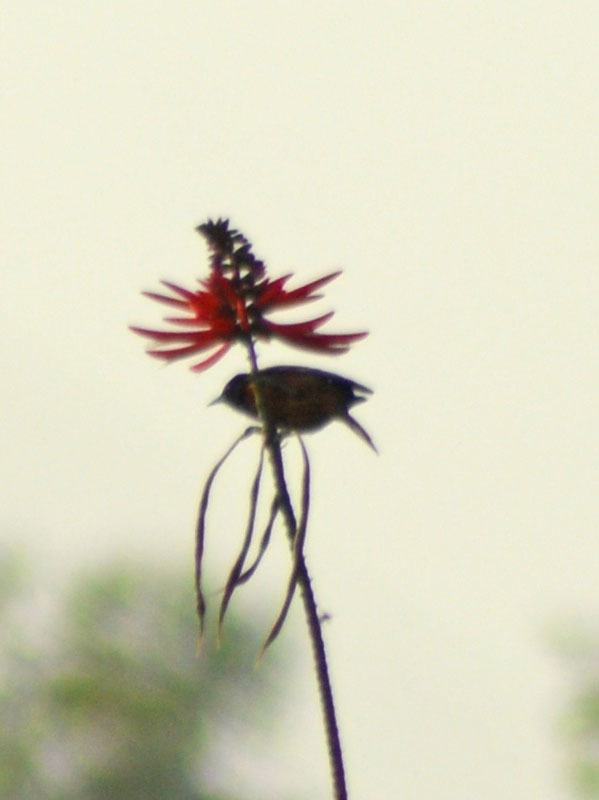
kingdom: Animalia
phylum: Chordata
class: Aves
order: Passeriformes
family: Icteridae
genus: Icterus
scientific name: Icterus spurius
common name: Orchard oriole
